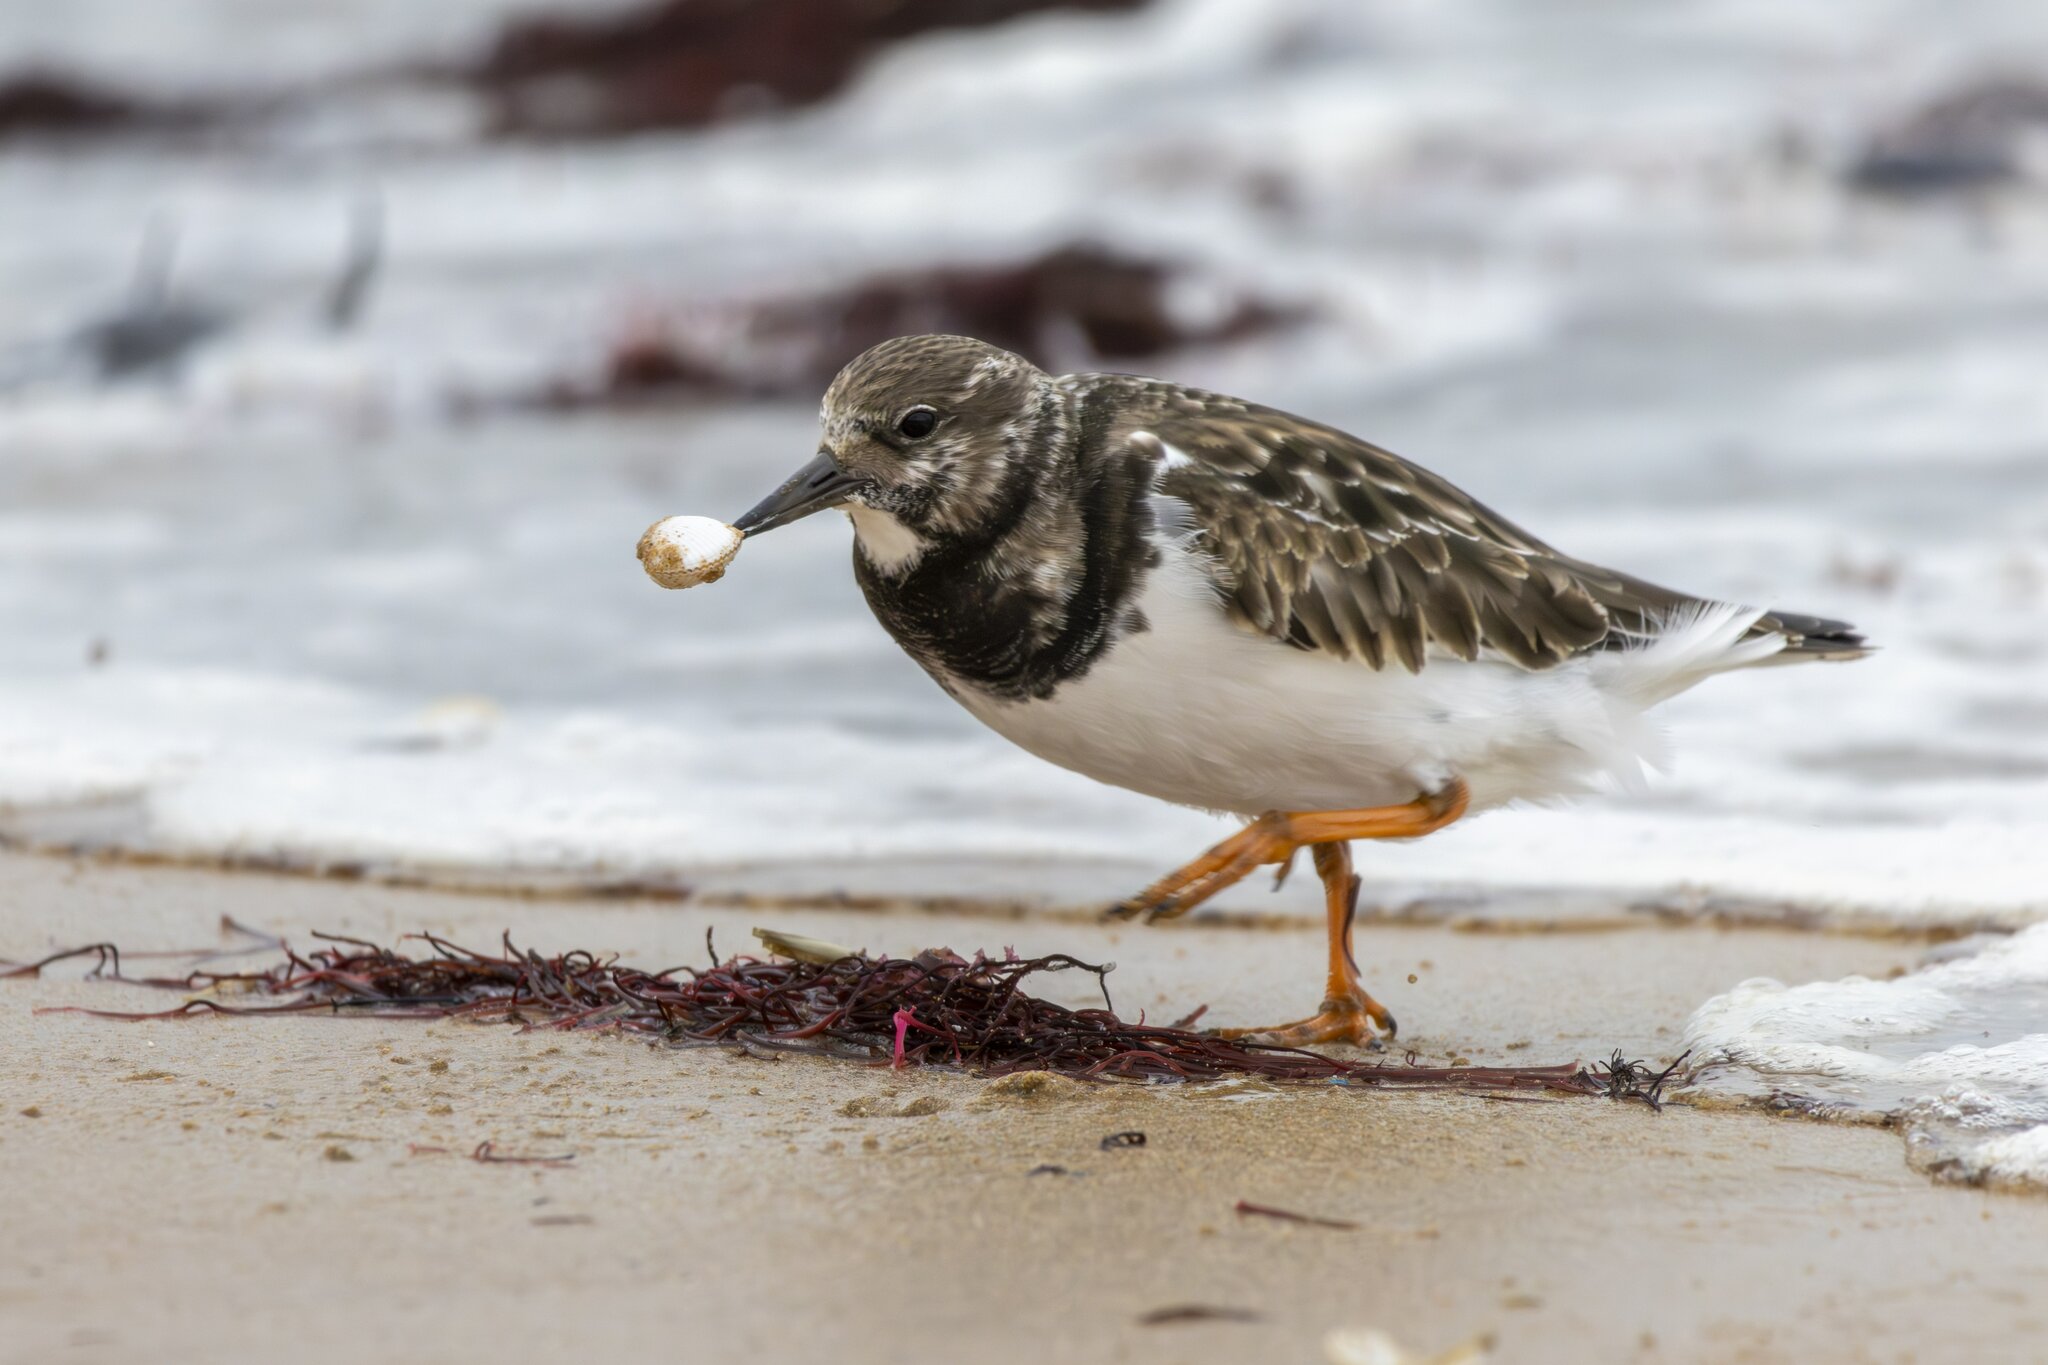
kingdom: Animalia
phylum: Chordata
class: Aves
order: Charadriiformes
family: Scolopacidae
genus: Arenaria
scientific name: Arenaria interpres
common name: Ruddy turnstone
